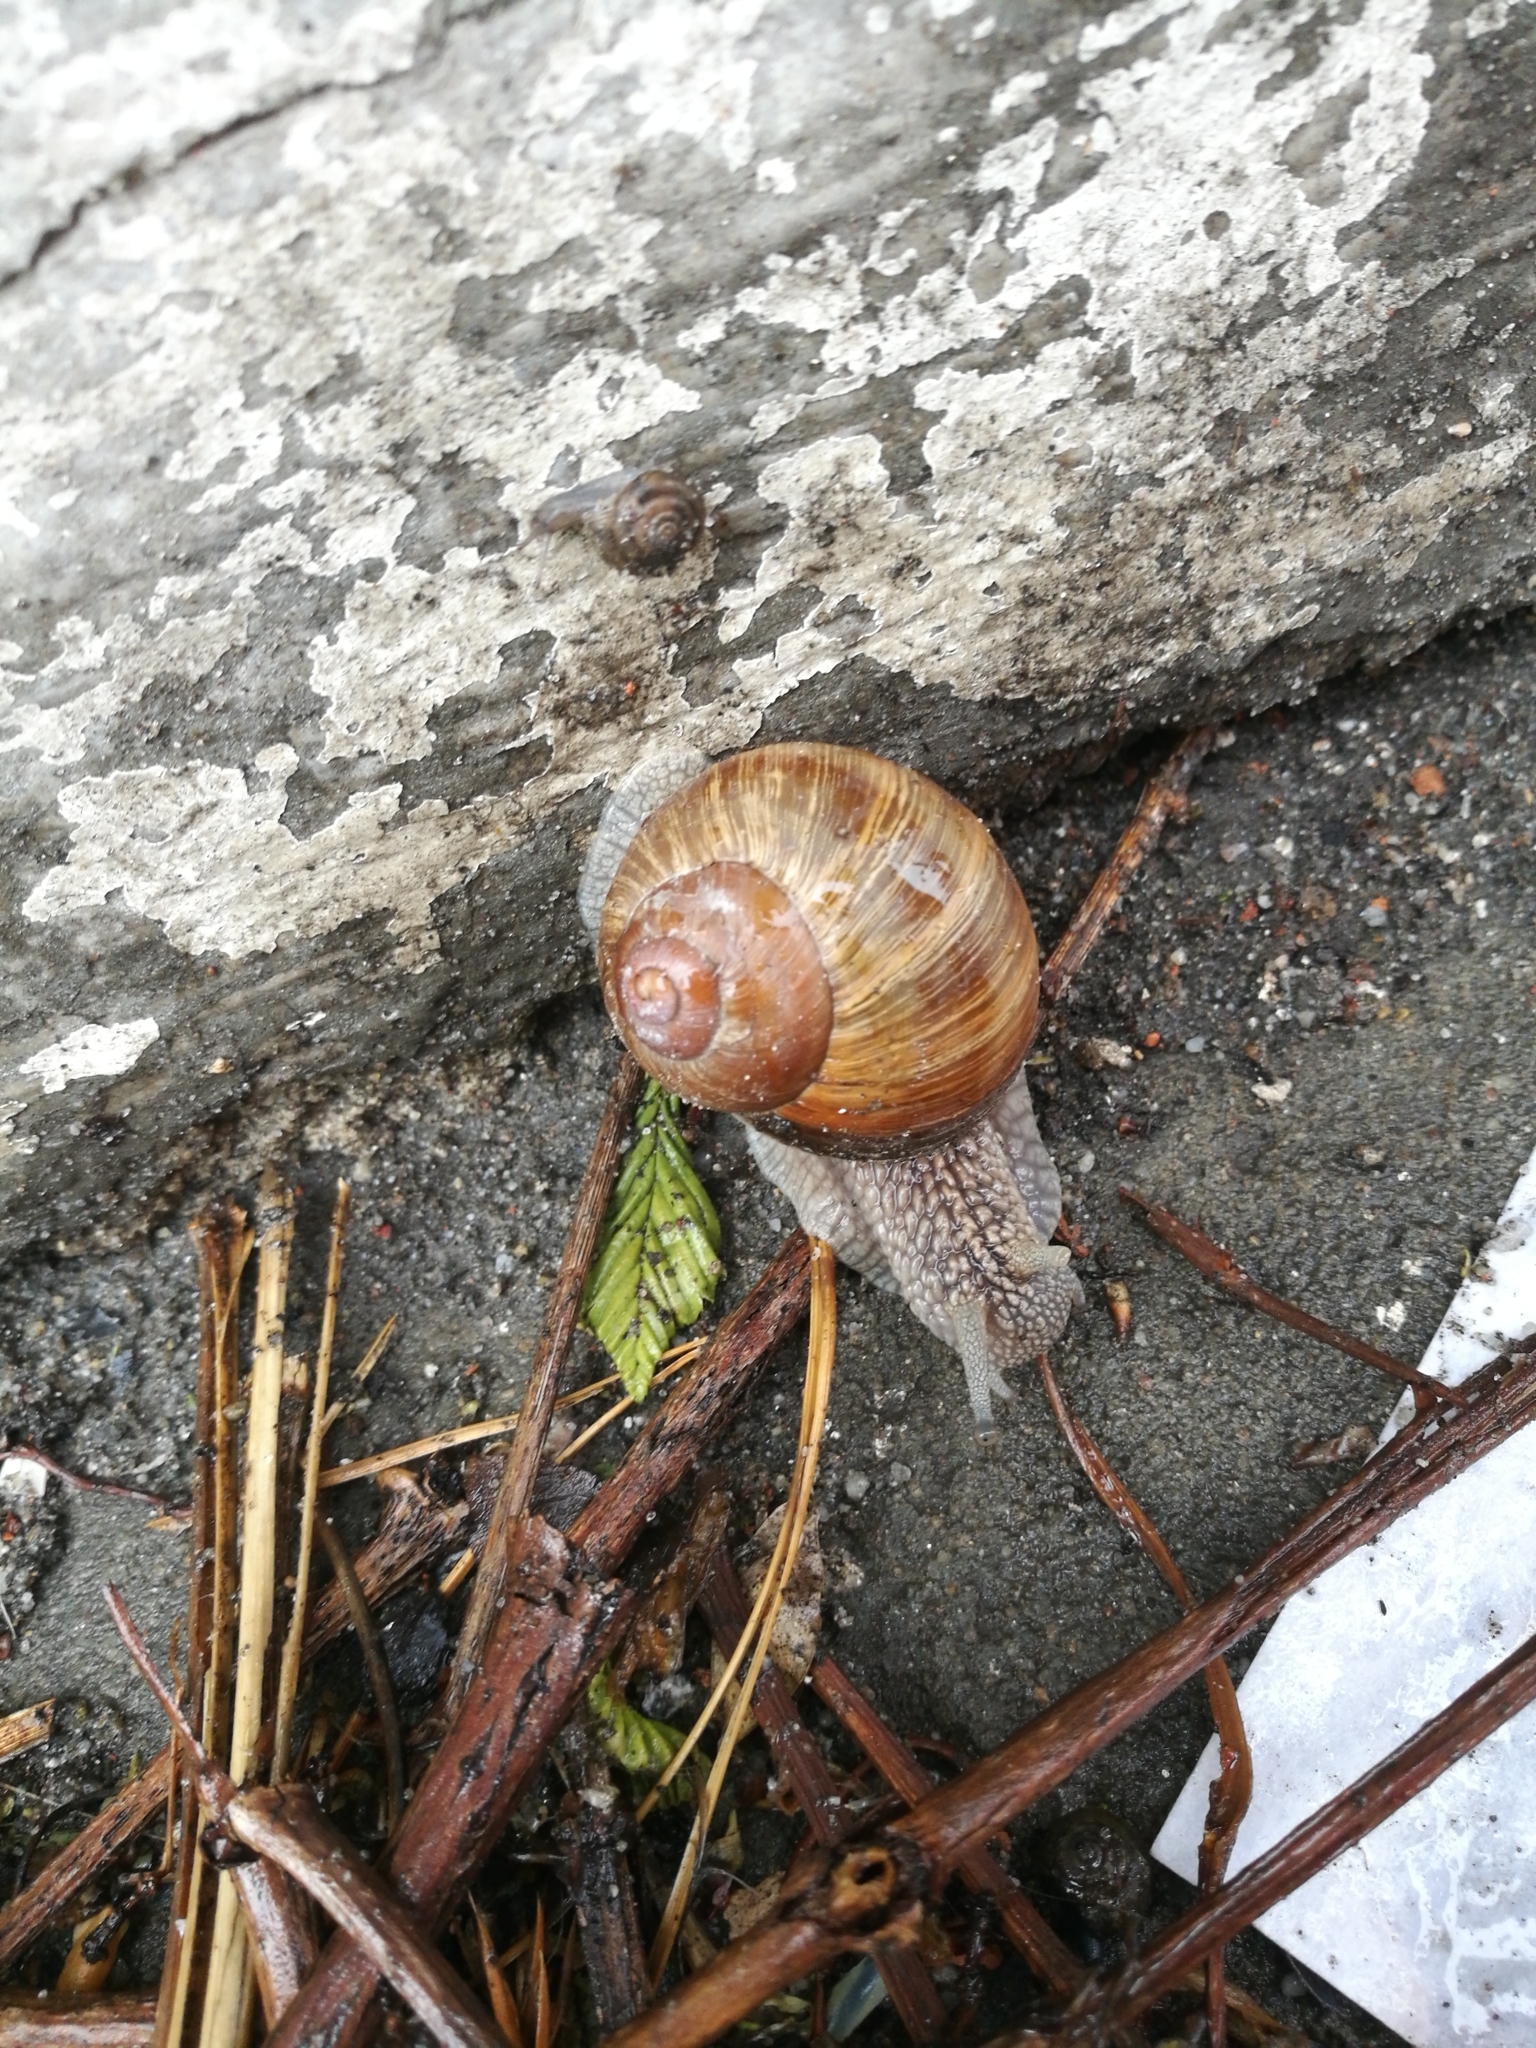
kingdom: Animalia
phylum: Mollusca
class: Gastropoda
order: Stylommatophora
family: Helicidae
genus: Helix
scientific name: Helix pomatia
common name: Roman snail
